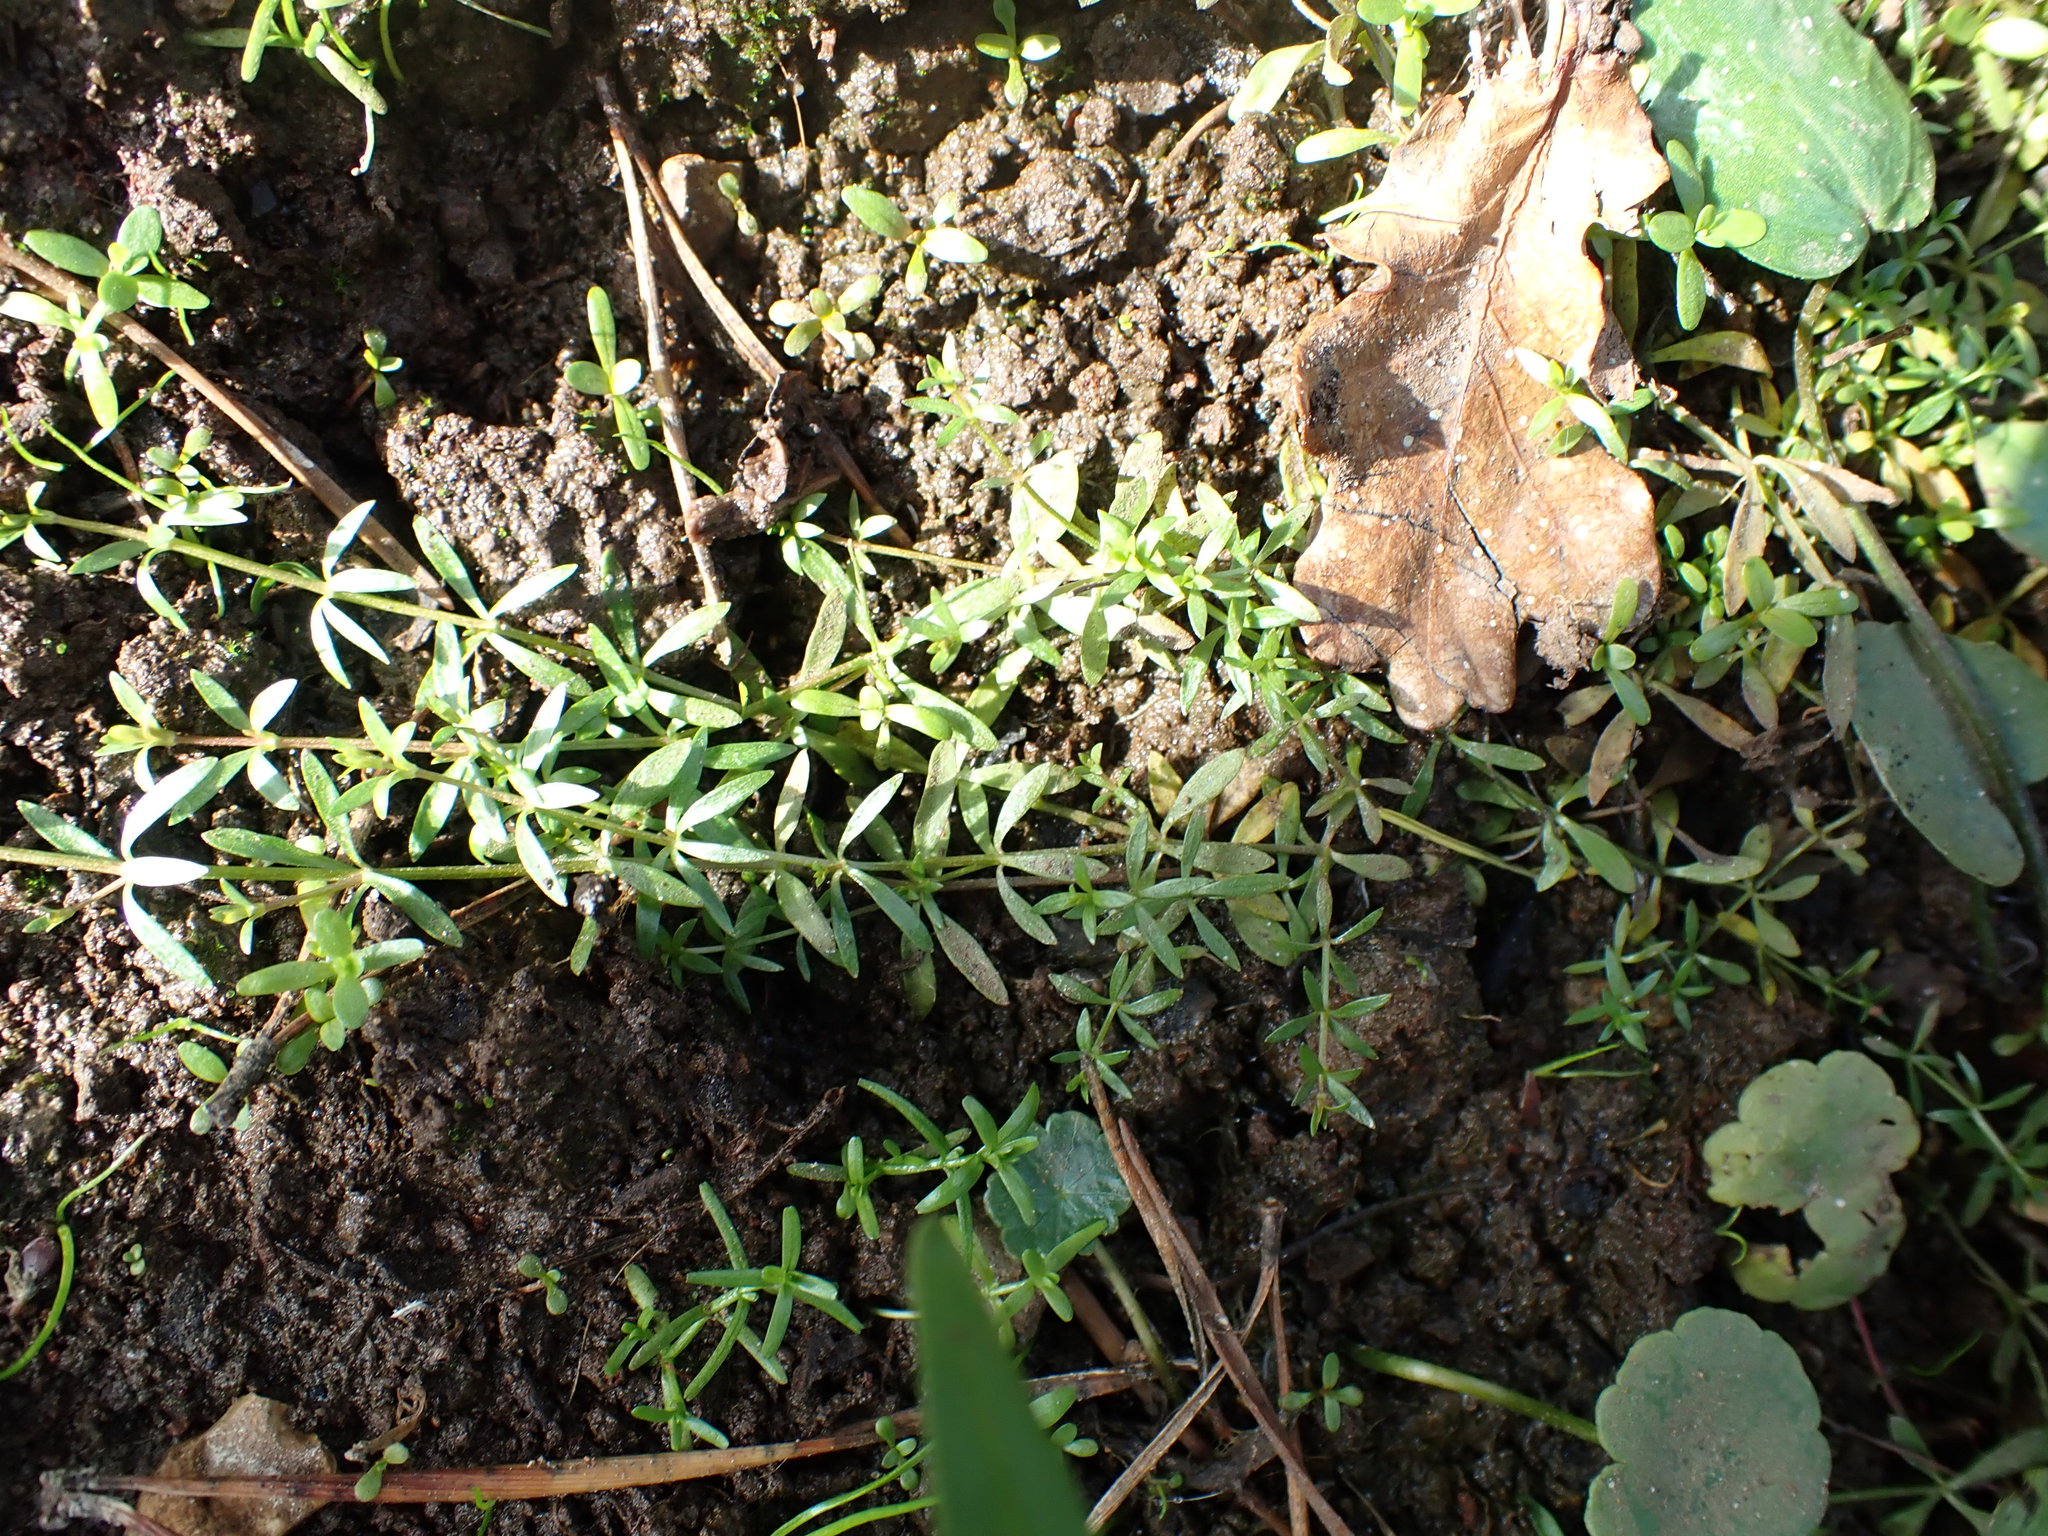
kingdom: Plantae
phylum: Tracheophyta
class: Magnoliopsida
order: Gentianales
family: Rubiaceae
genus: Galium
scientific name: Galium palustre
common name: Common marsh-bedstraw
